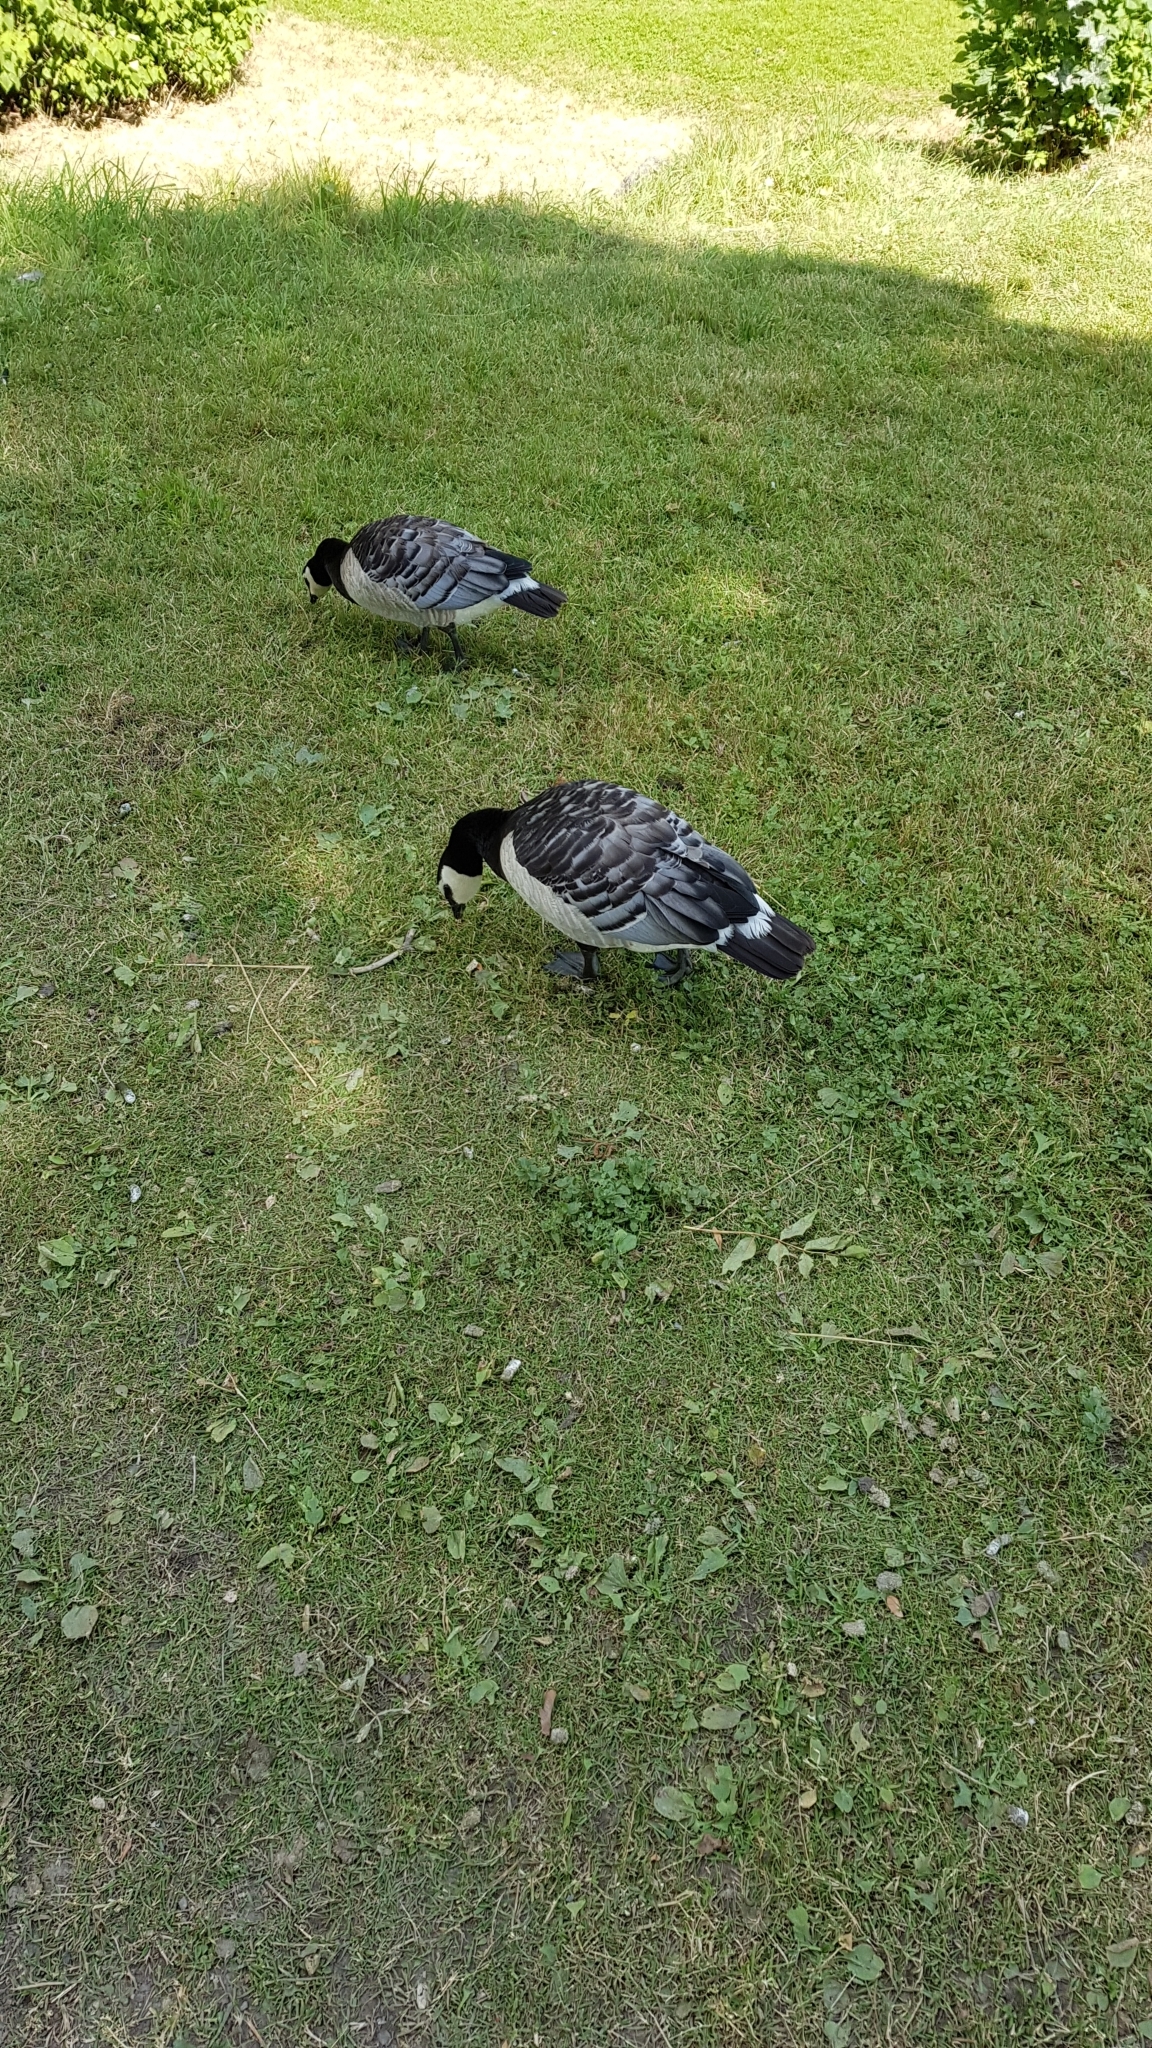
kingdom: Animalia
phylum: Chordata
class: Aves
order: Anseriformes
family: Anatidae
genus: Branta
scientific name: Branta leucopsis
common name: Barnacle goose
